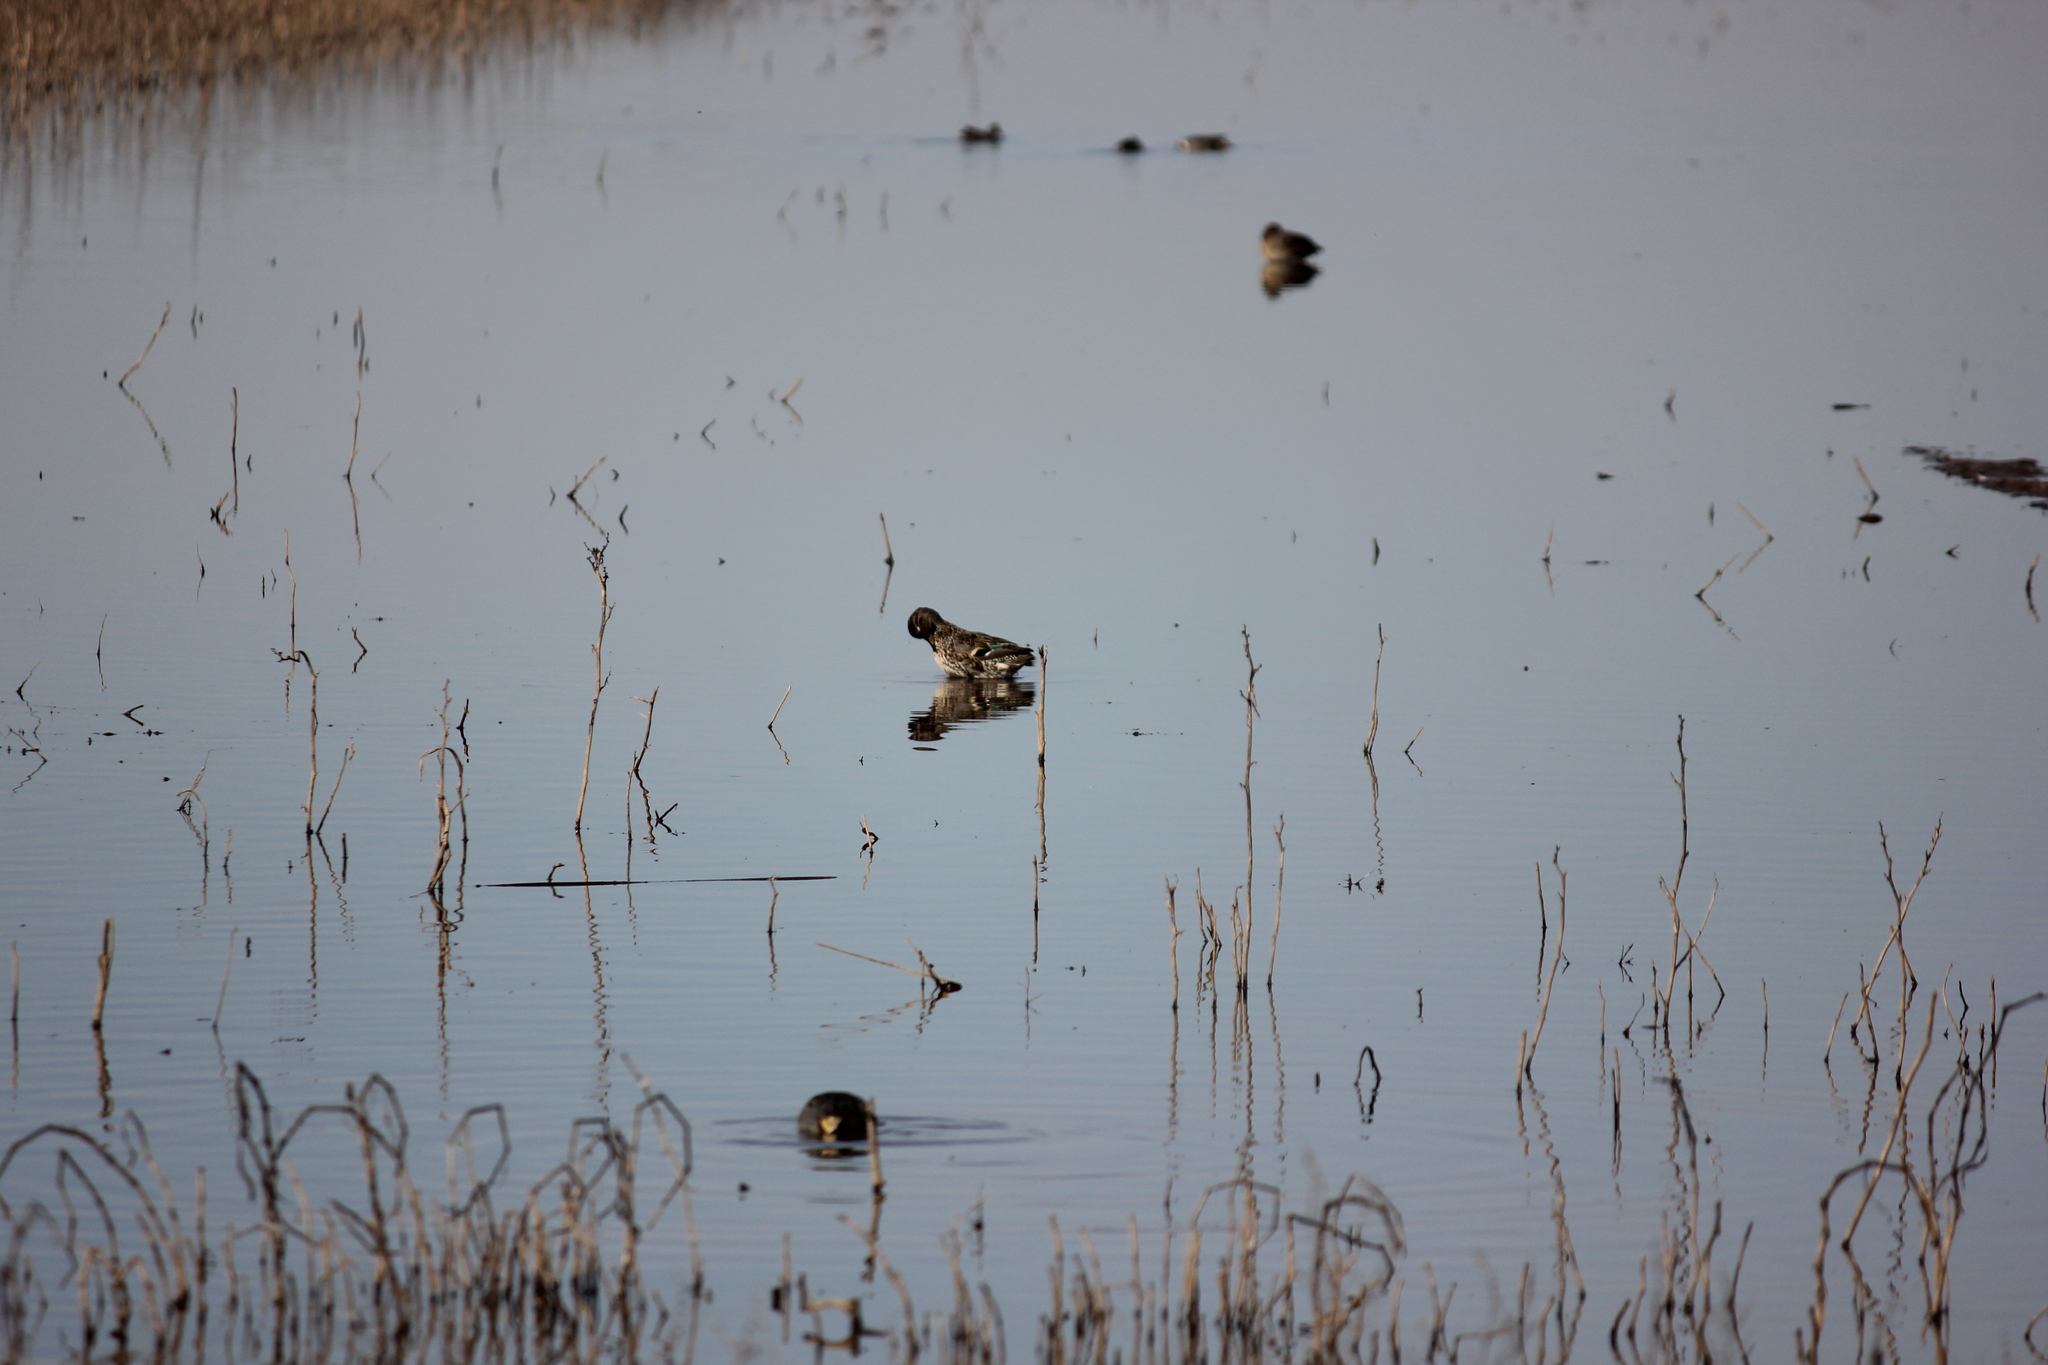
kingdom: Animalia
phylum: Chordata
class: Aves
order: Anseriformes
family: Anatidae
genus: Anas
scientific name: Anas crecca
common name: Eurasian teal
